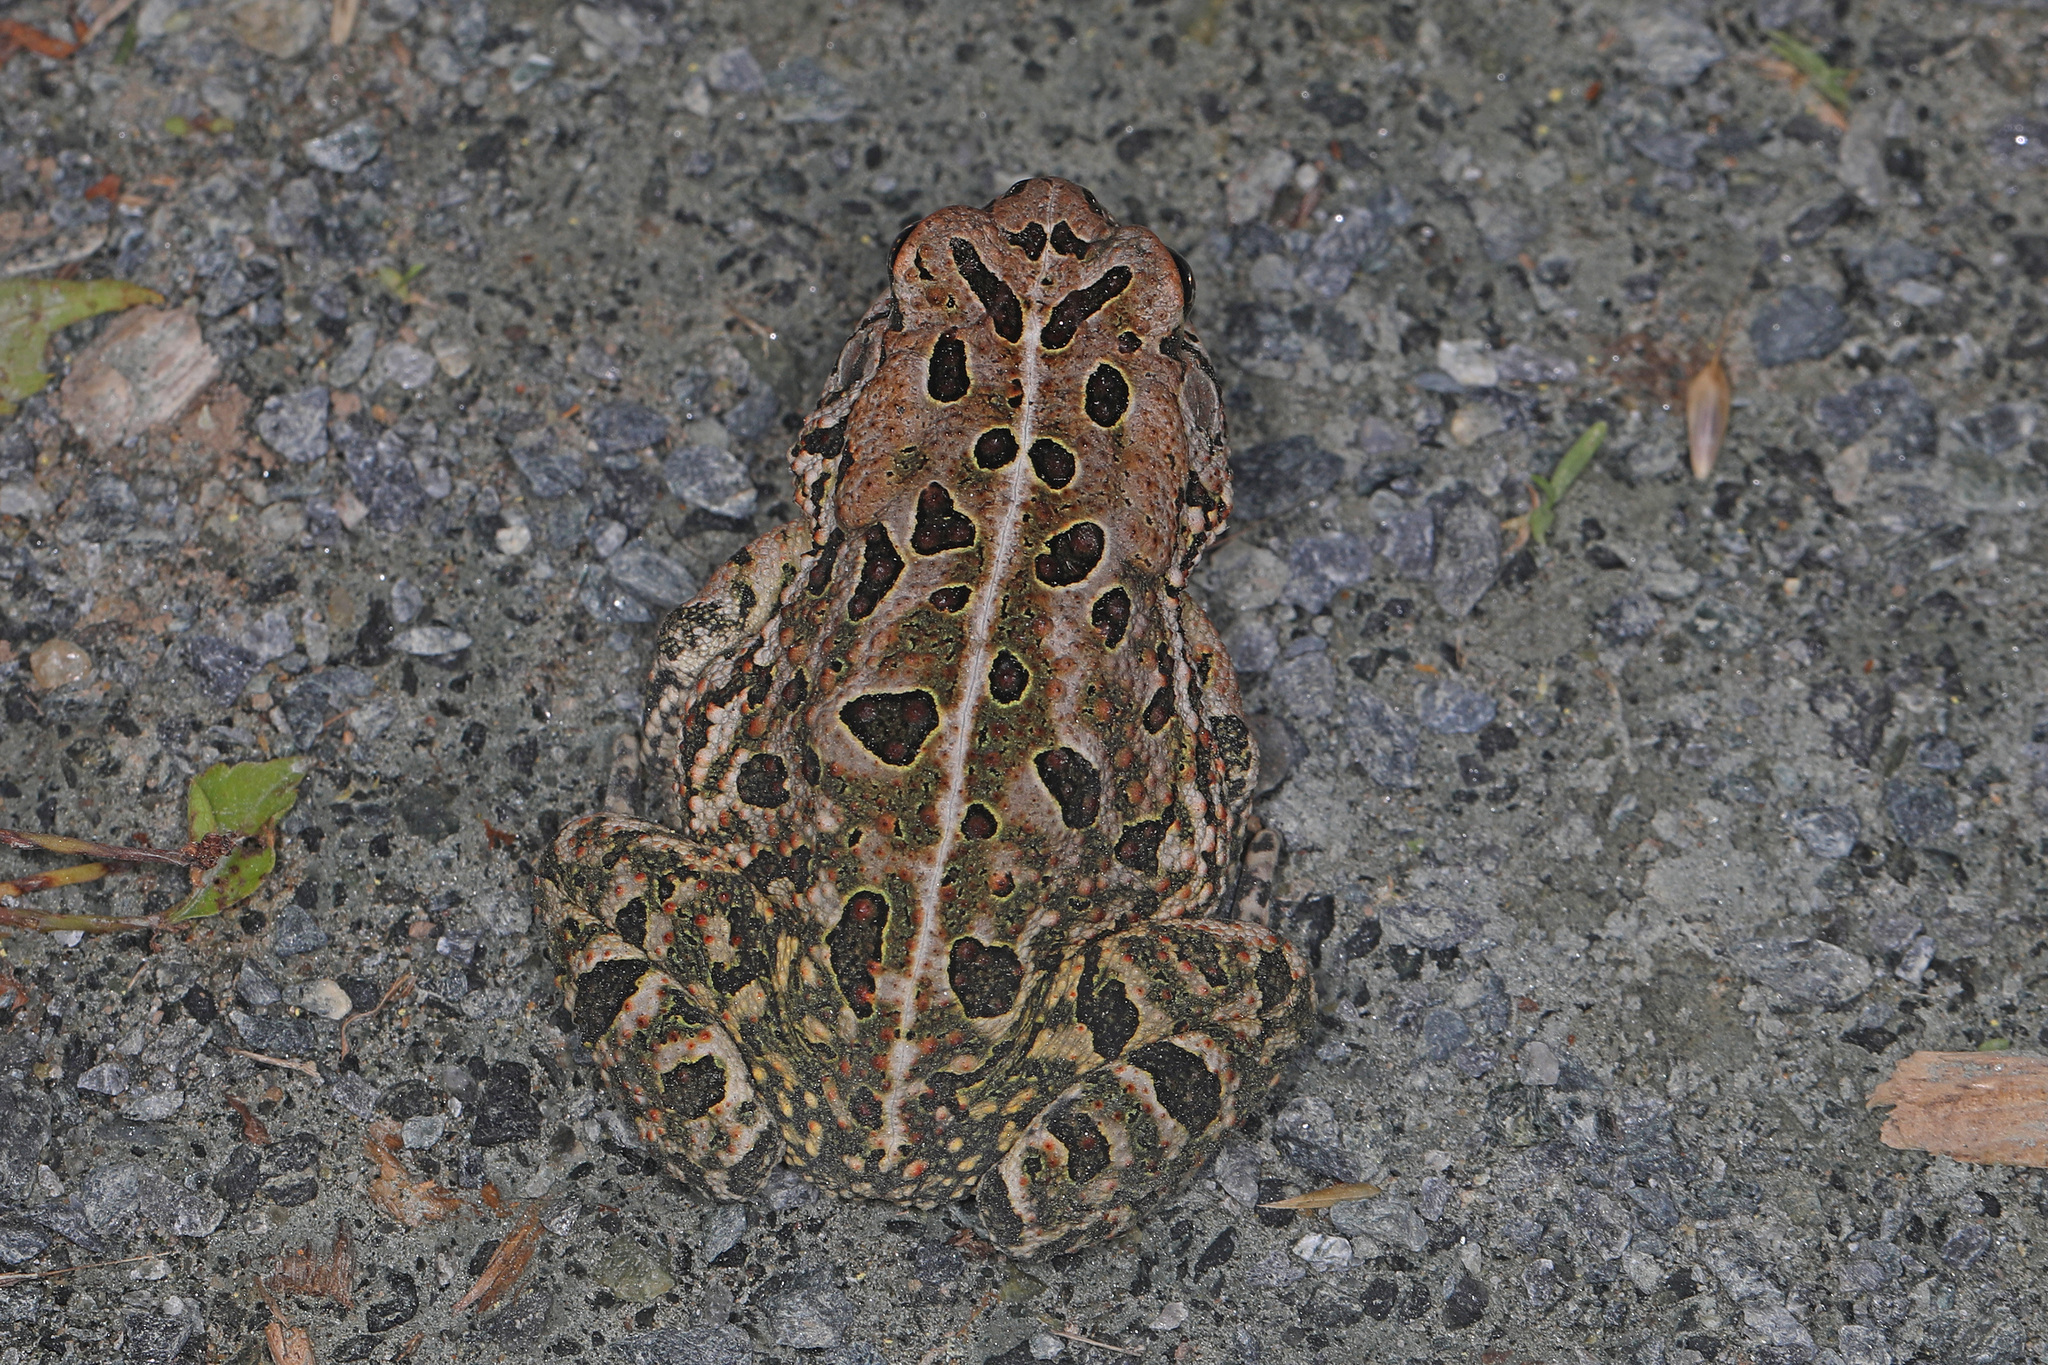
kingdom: Animalia
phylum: Chordata
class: Amphibia
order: Anura
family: Bufonidae
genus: Anaxyrus
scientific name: Anaxyrus fowleri
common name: Fowler's toad
